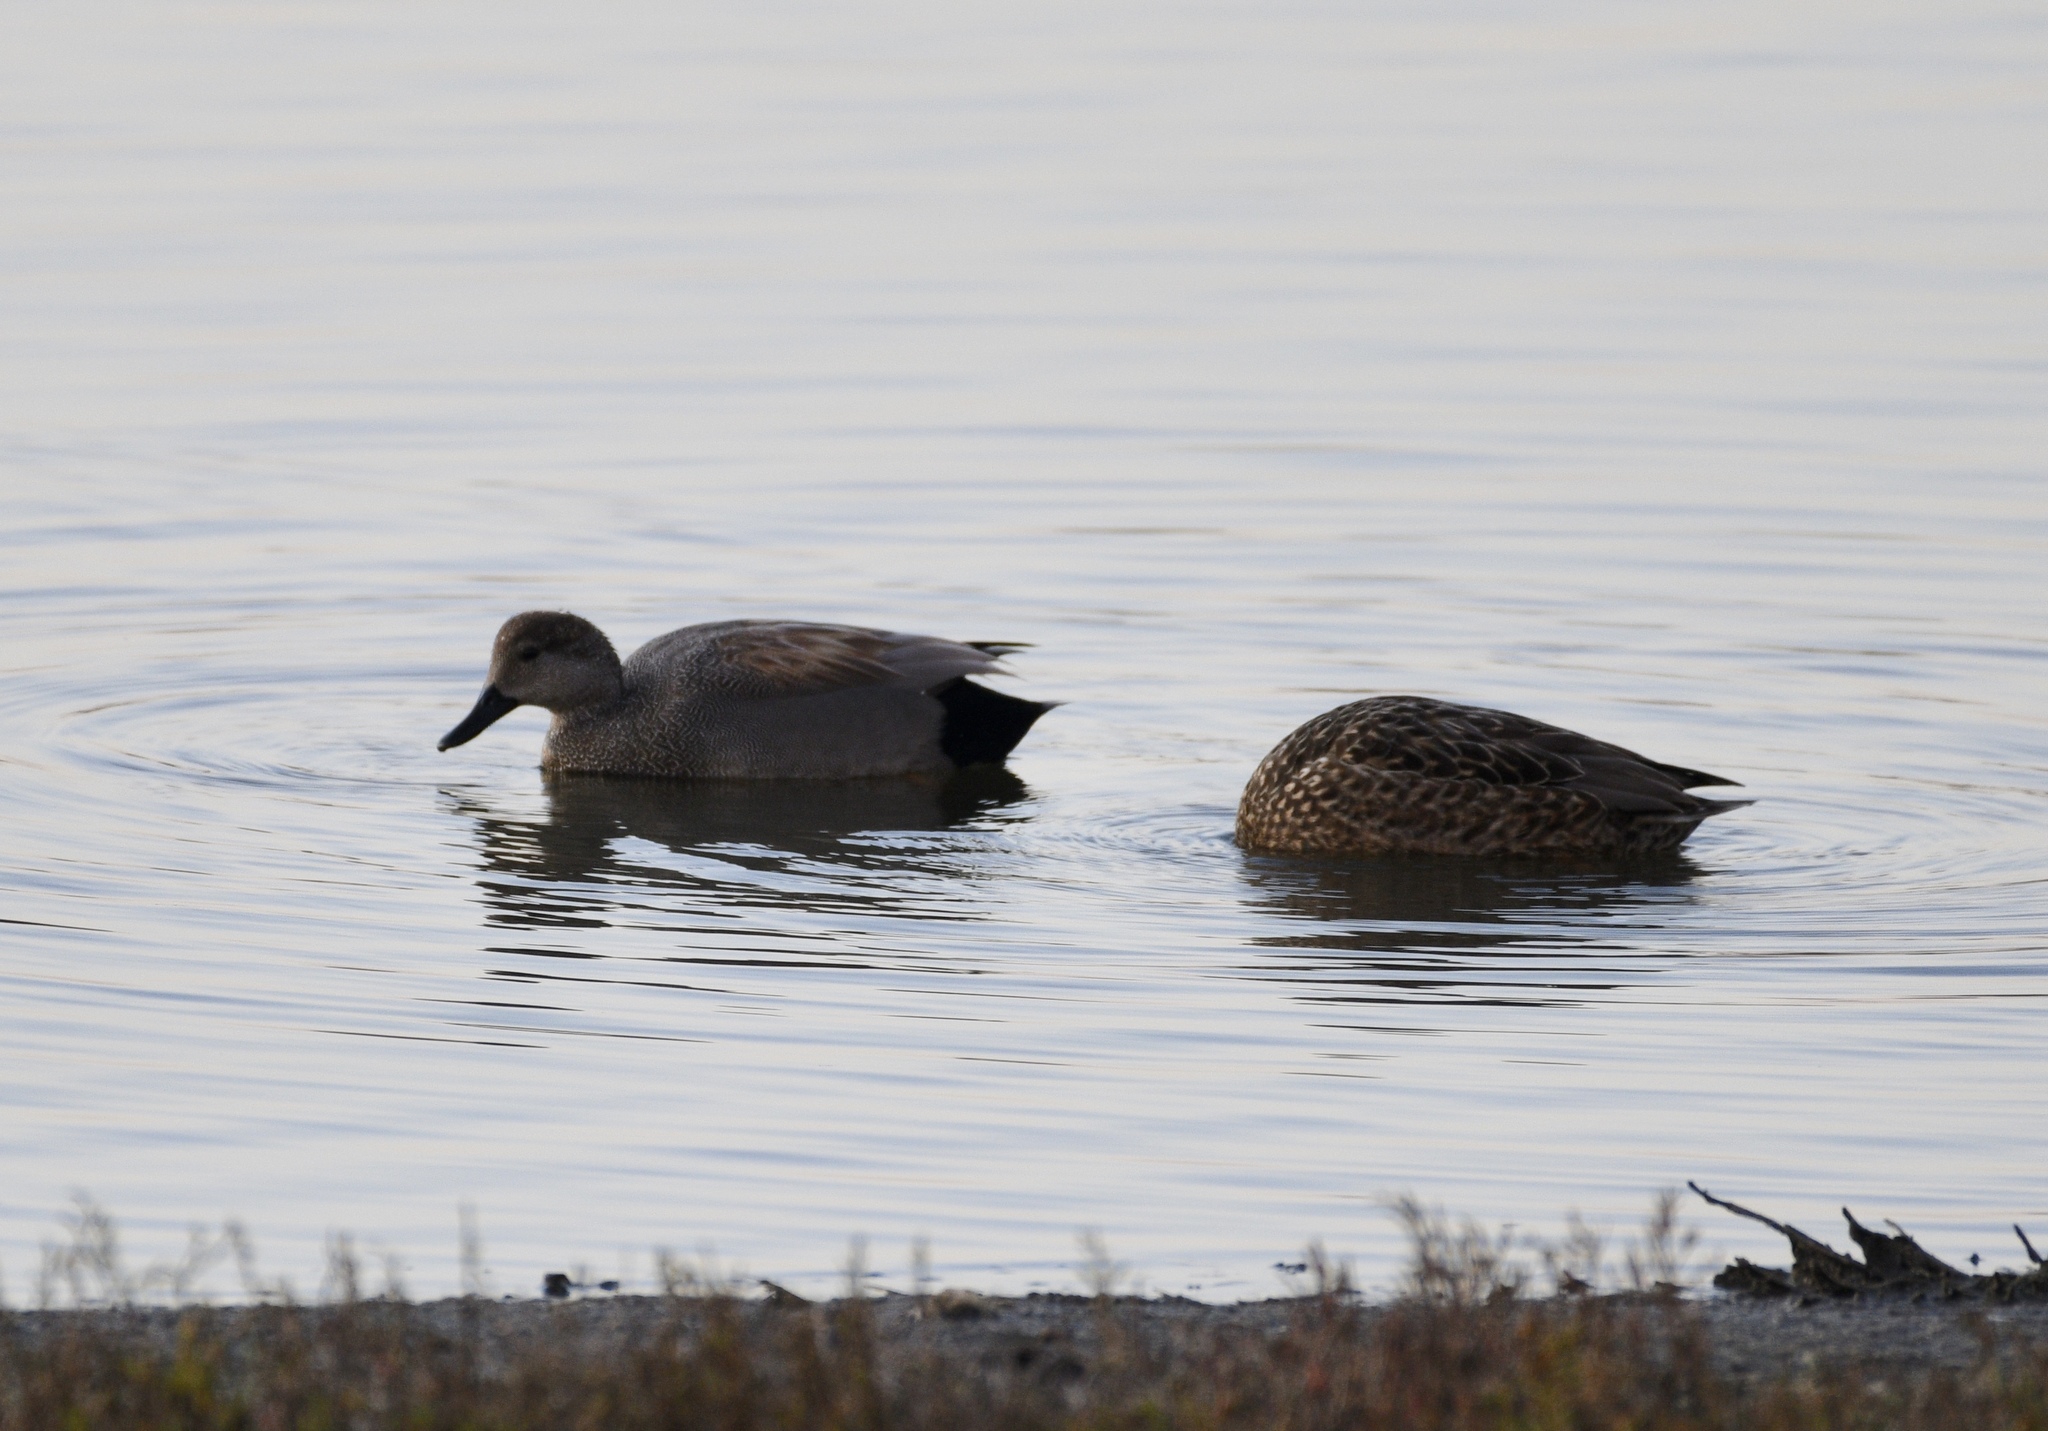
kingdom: Animalia
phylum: Chordata
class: Aves
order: Anseriformes
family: Anatidae
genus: Mareca
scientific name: Mareca strepera
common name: Gadwall
